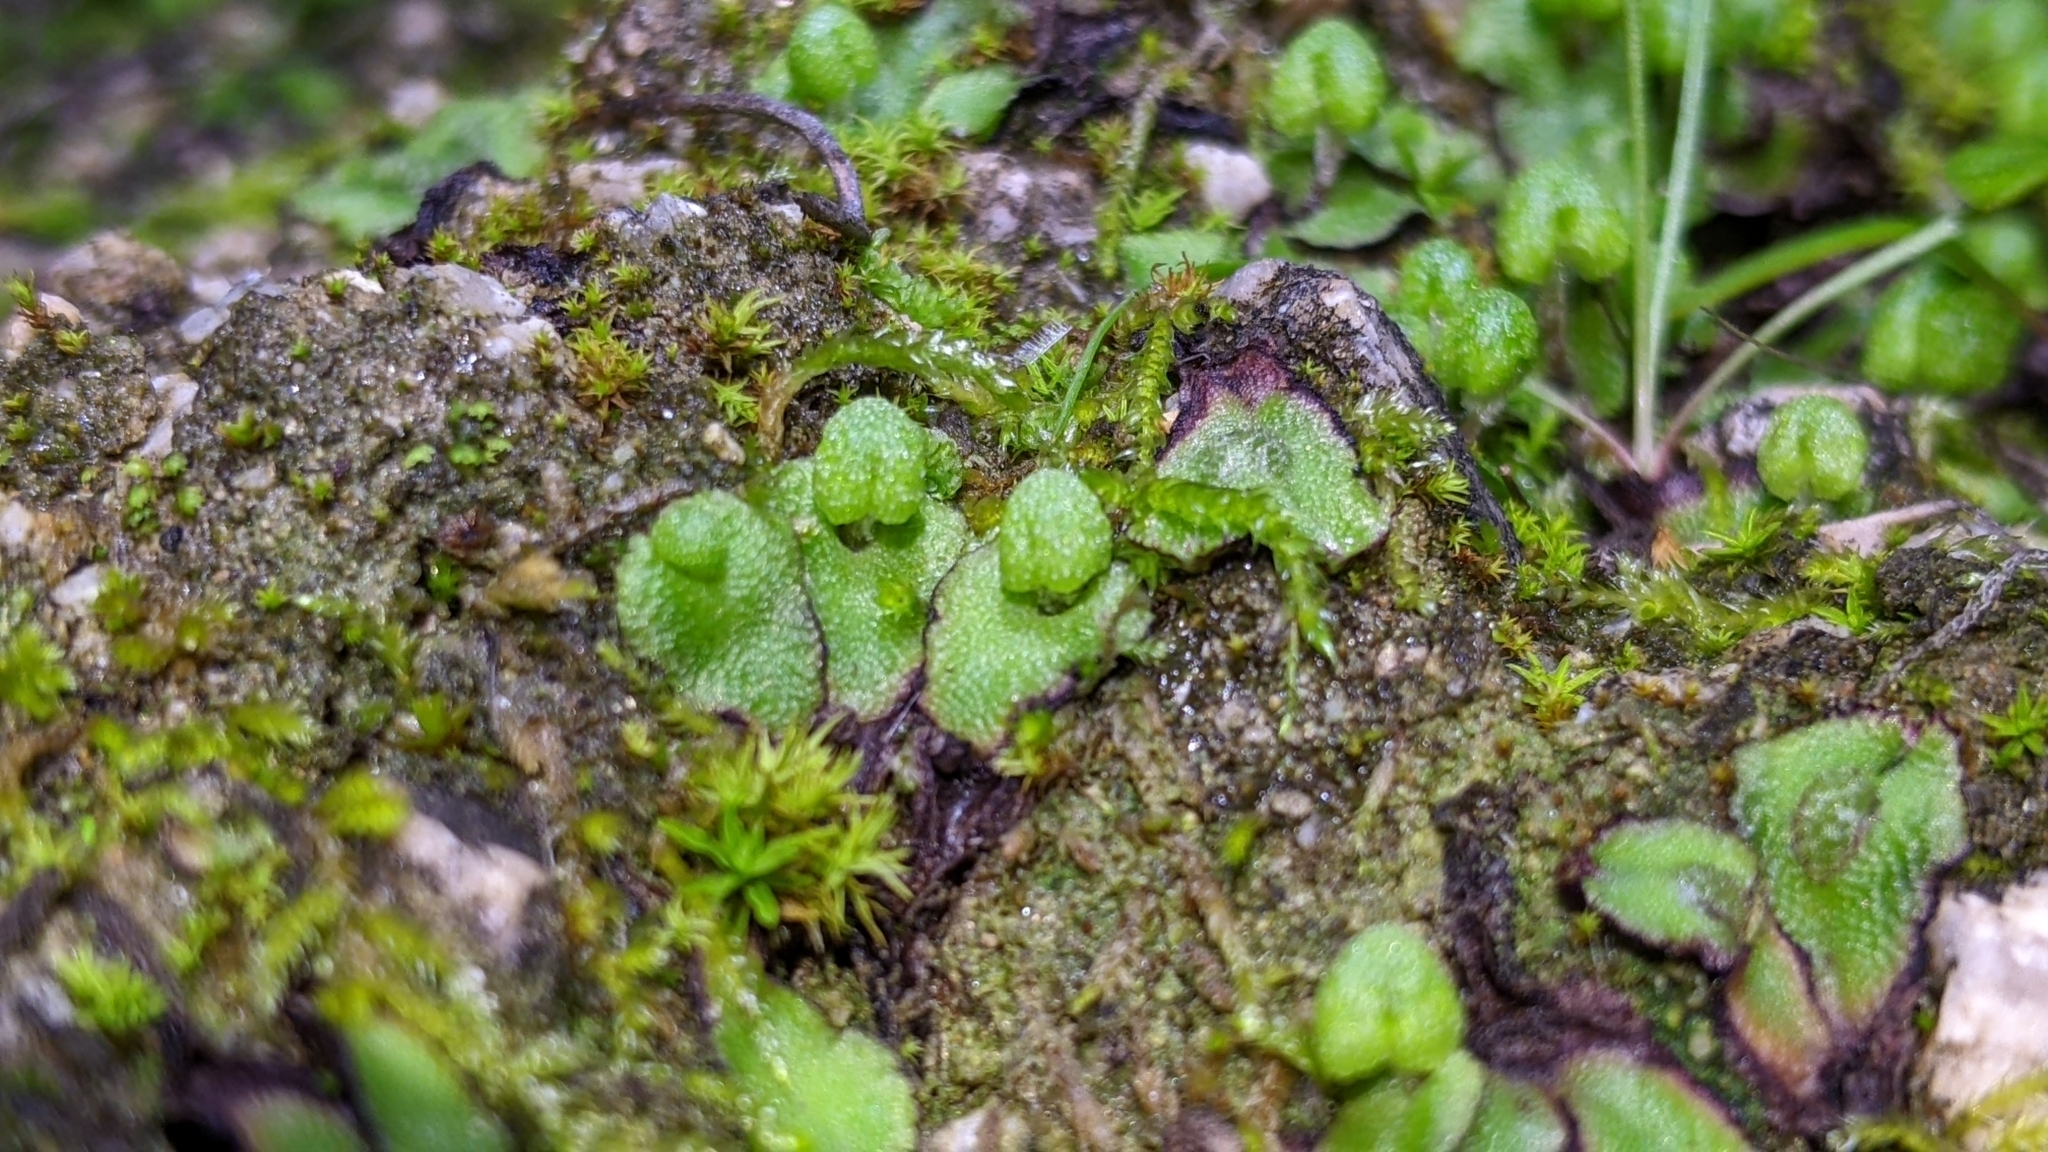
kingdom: Plantae
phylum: Marchantiophyta
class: Marchantiopsida
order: Marchantiales
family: Aytoniaceae
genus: Asterella
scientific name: Asterella californica
